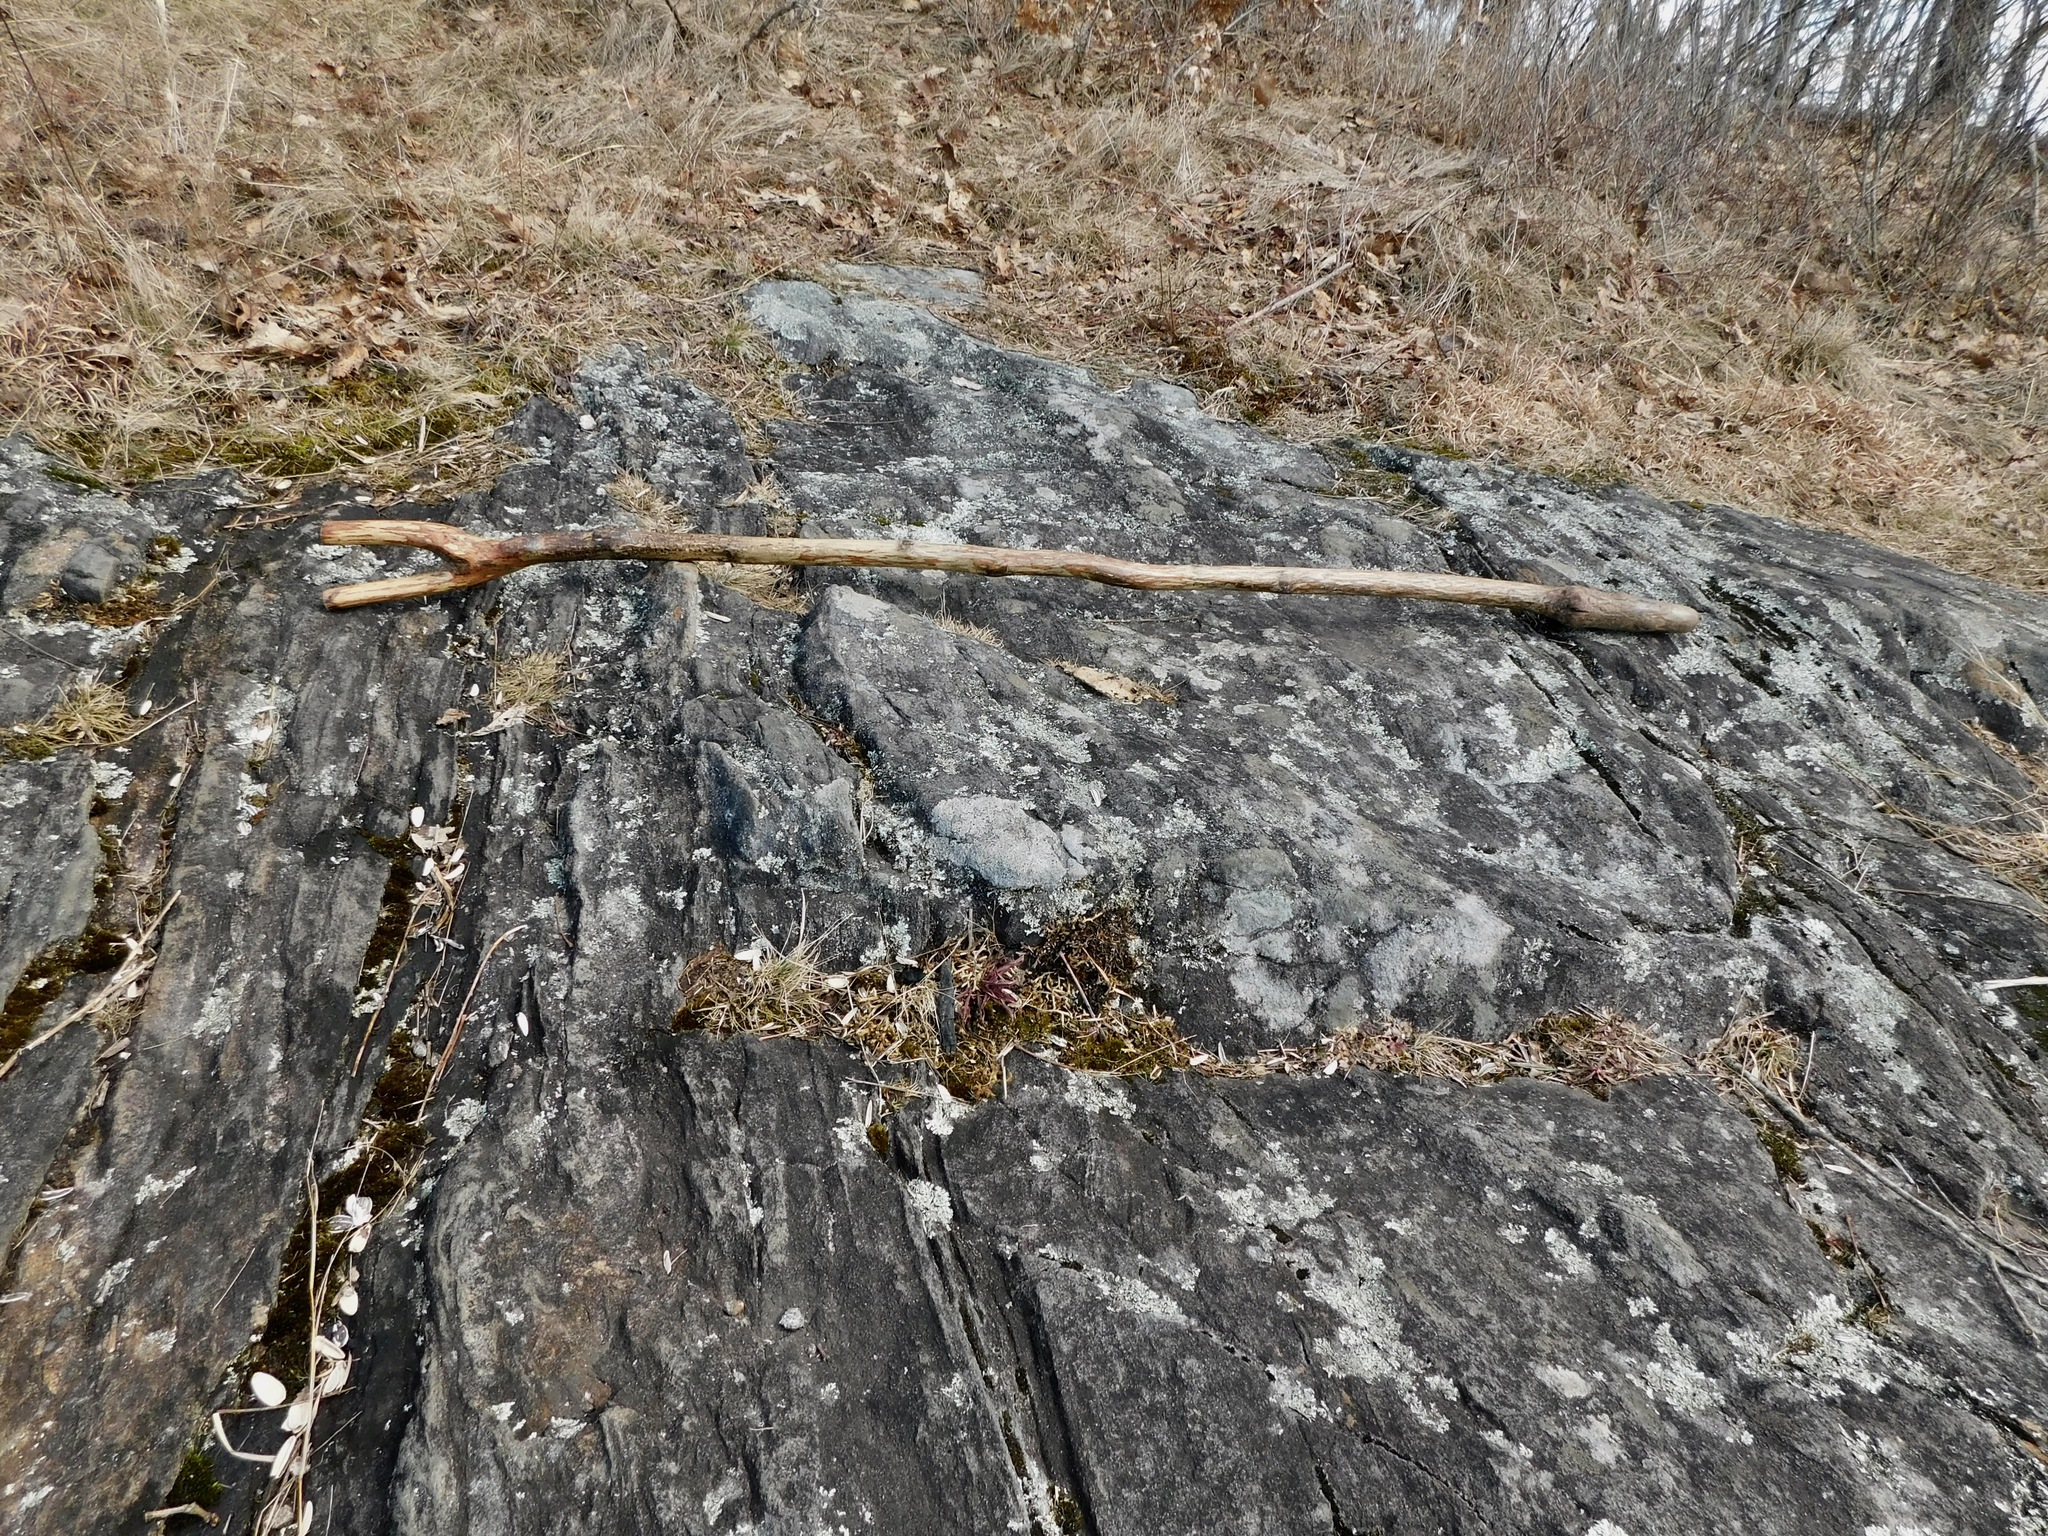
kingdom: Fungi
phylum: Ascomycota
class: Lecanoromycetes
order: Lecanorales
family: Lecanoraceae
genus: Lecanora
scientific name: Lecanora oreinoides
